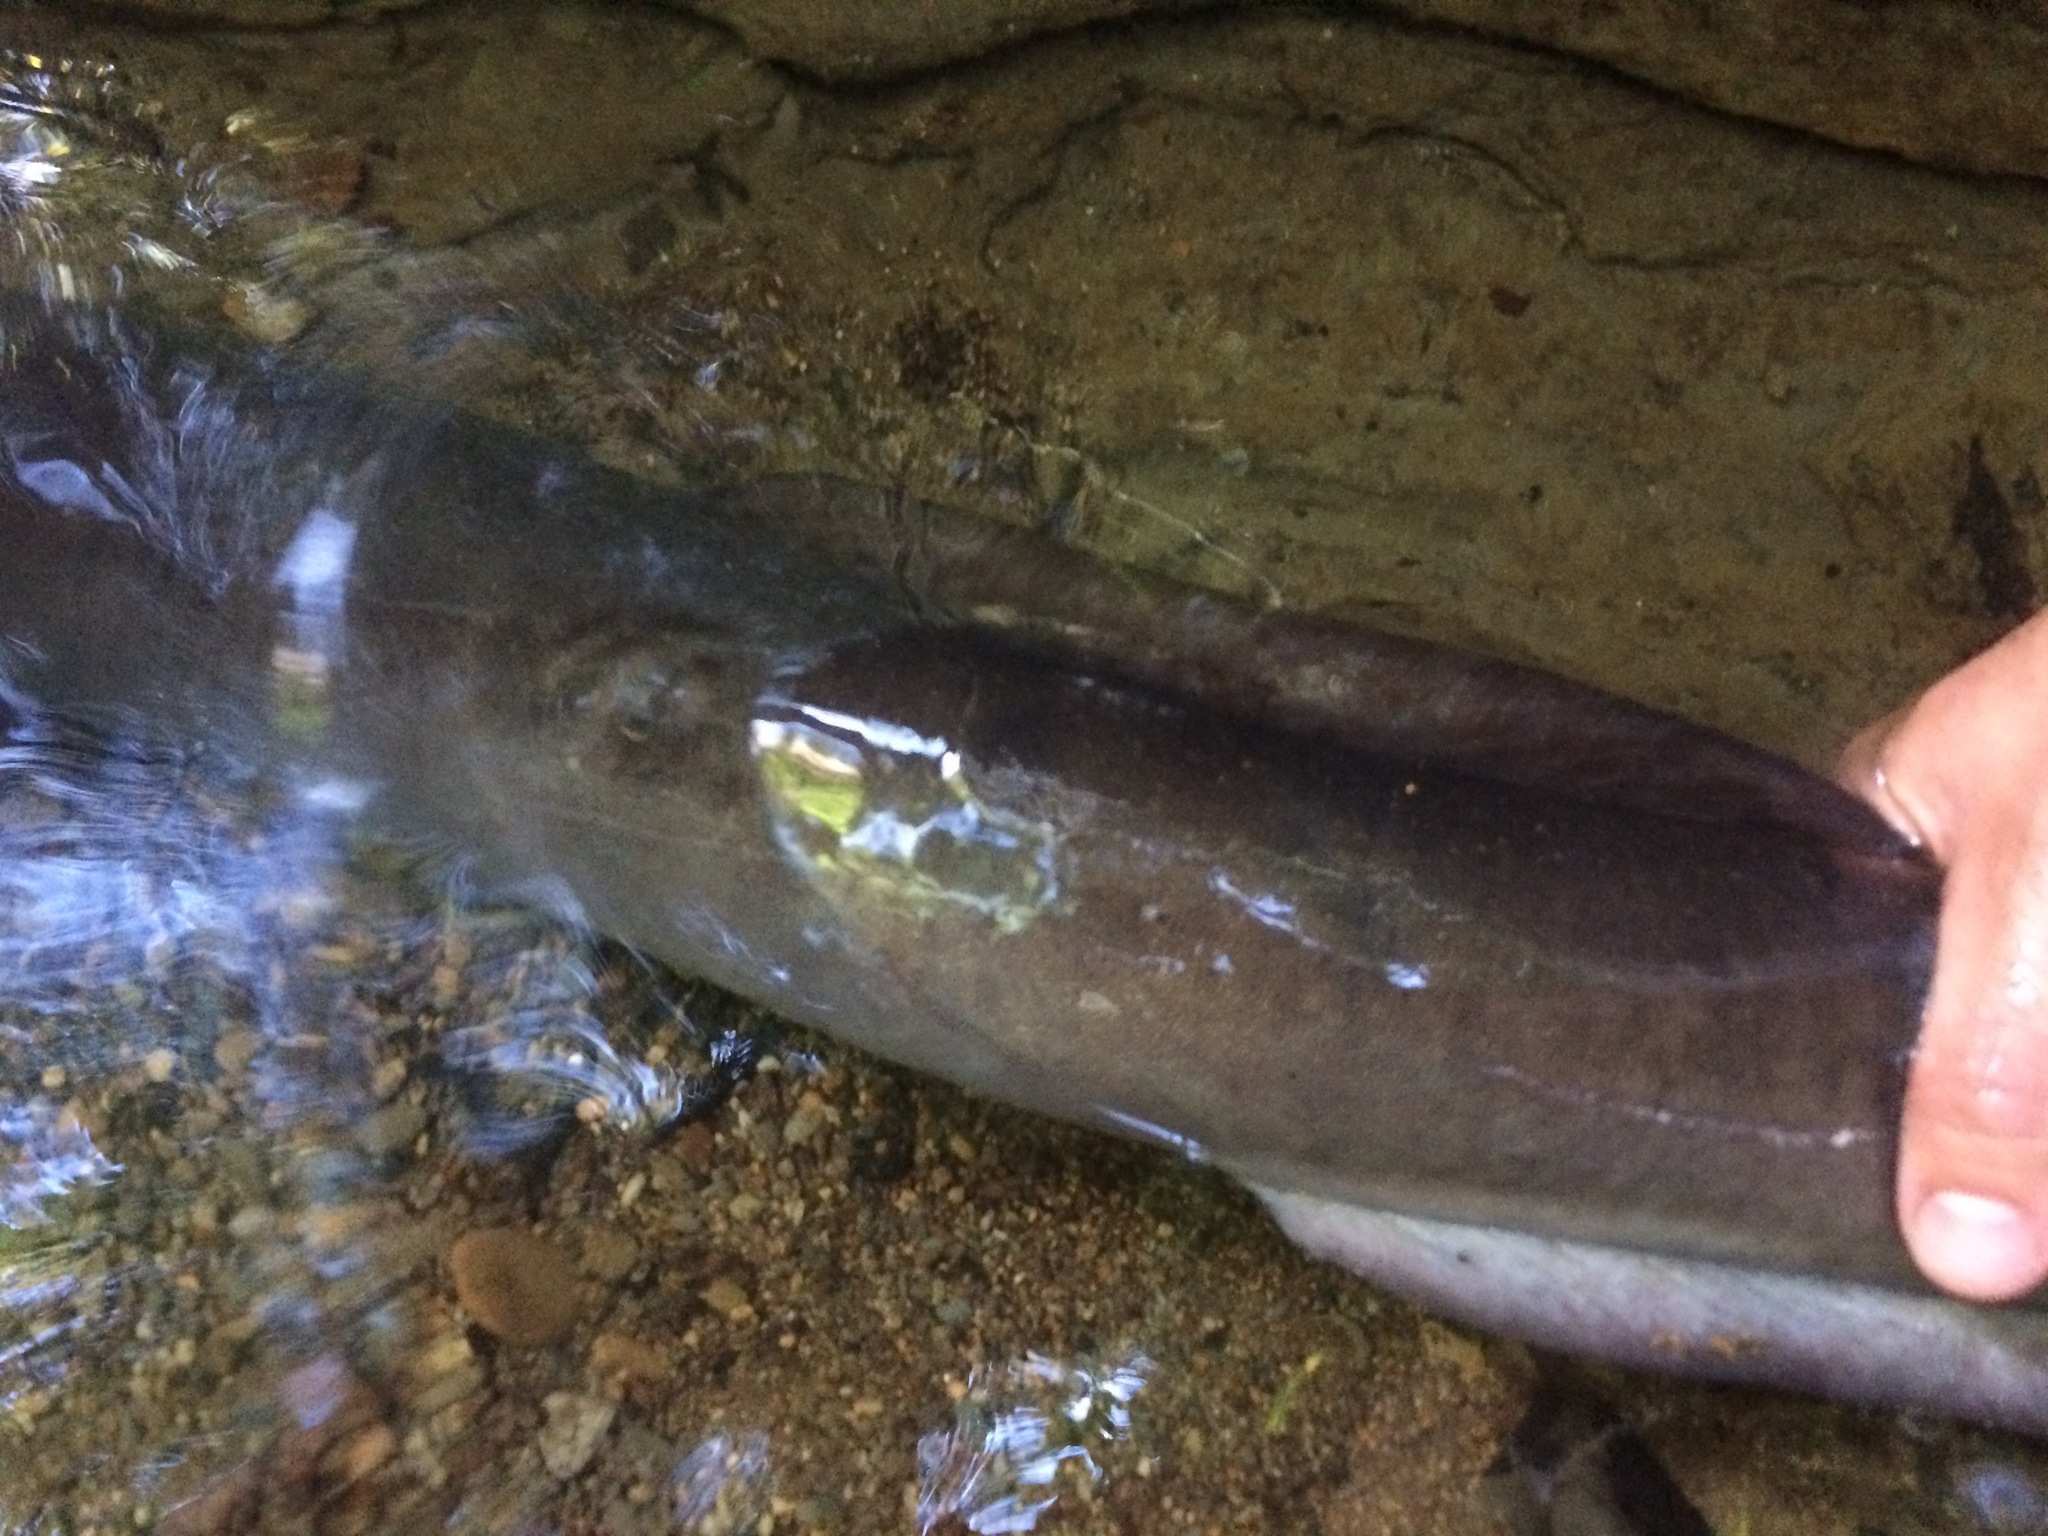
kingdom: Animalia
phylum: Chordata
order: Anguilliformes
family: Anguillidae
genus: Anguilla
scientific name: Anguilla dieffenbachii
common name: New zealand longfin eel
